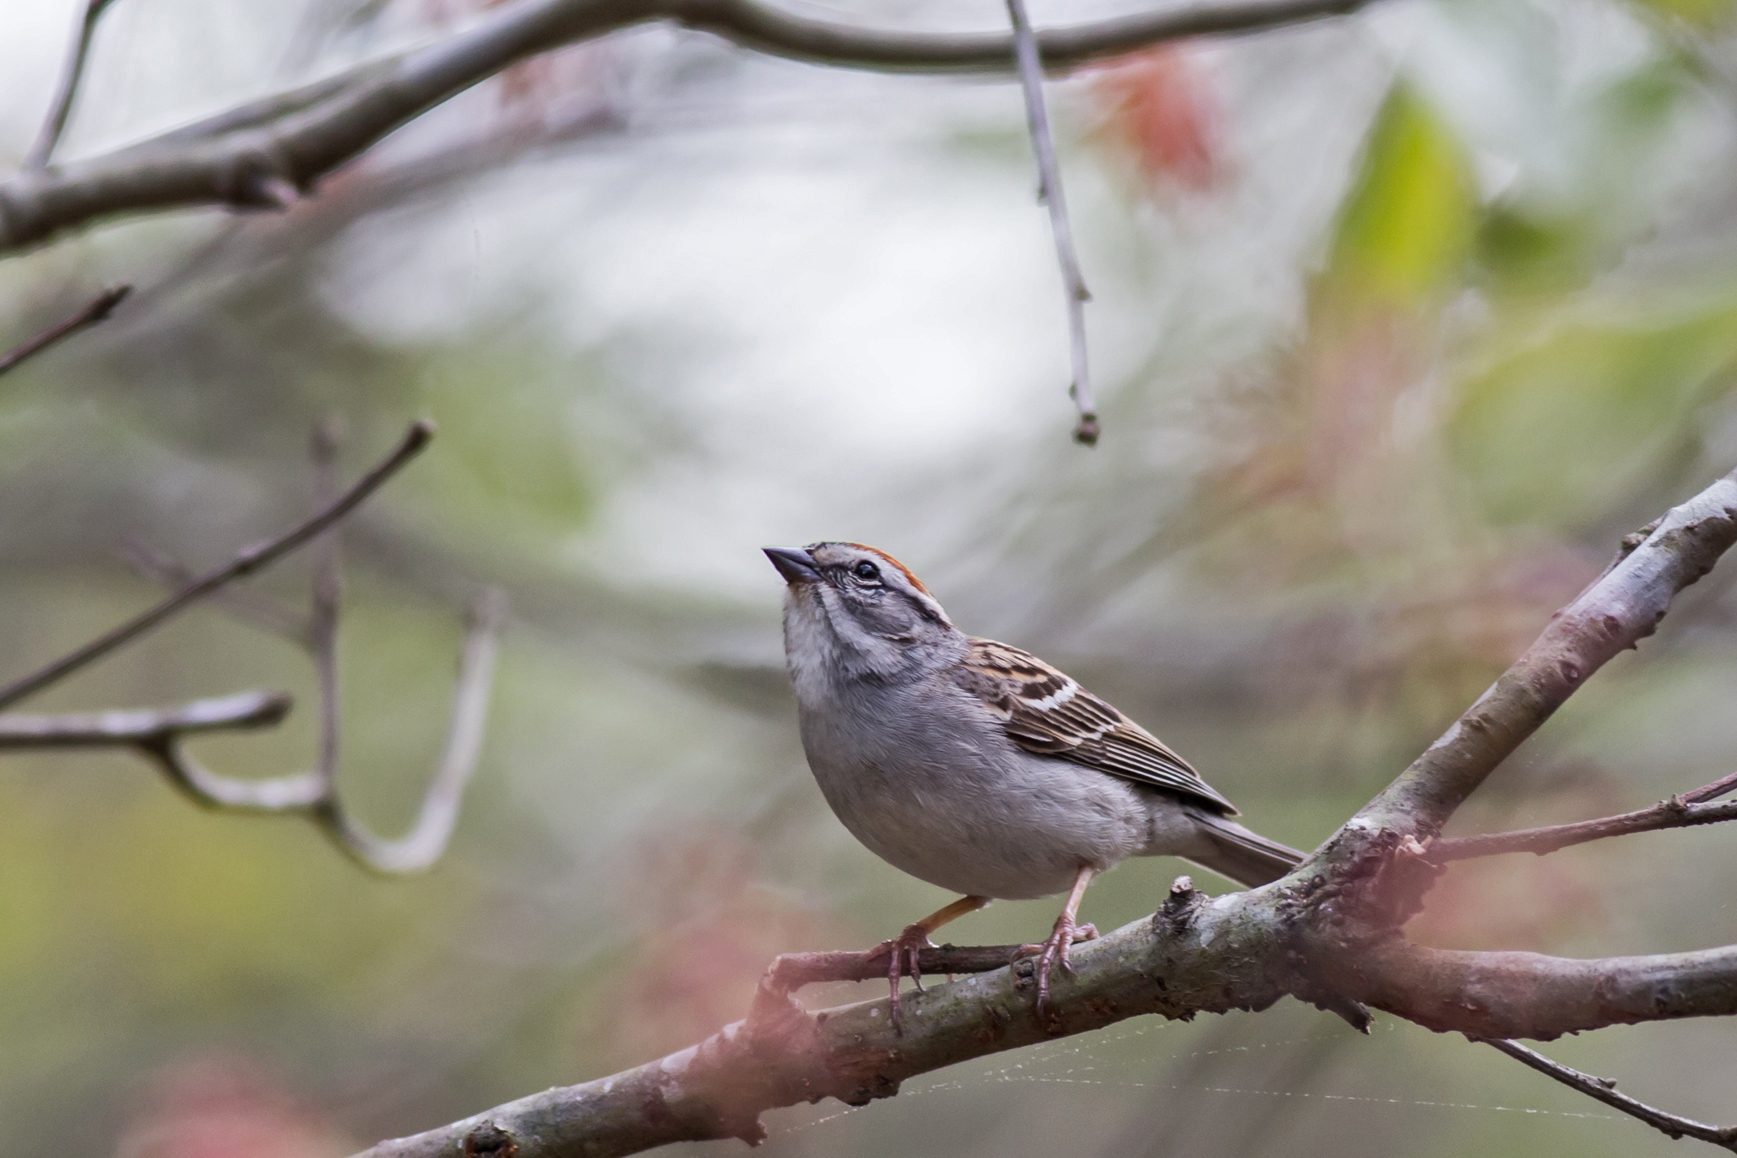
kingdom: Animalia
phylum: Chordata
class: Aves
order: Passeriformes
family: Passerellidae
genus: Spizella
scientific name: Spizella passerina
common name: Chipping sparrow
